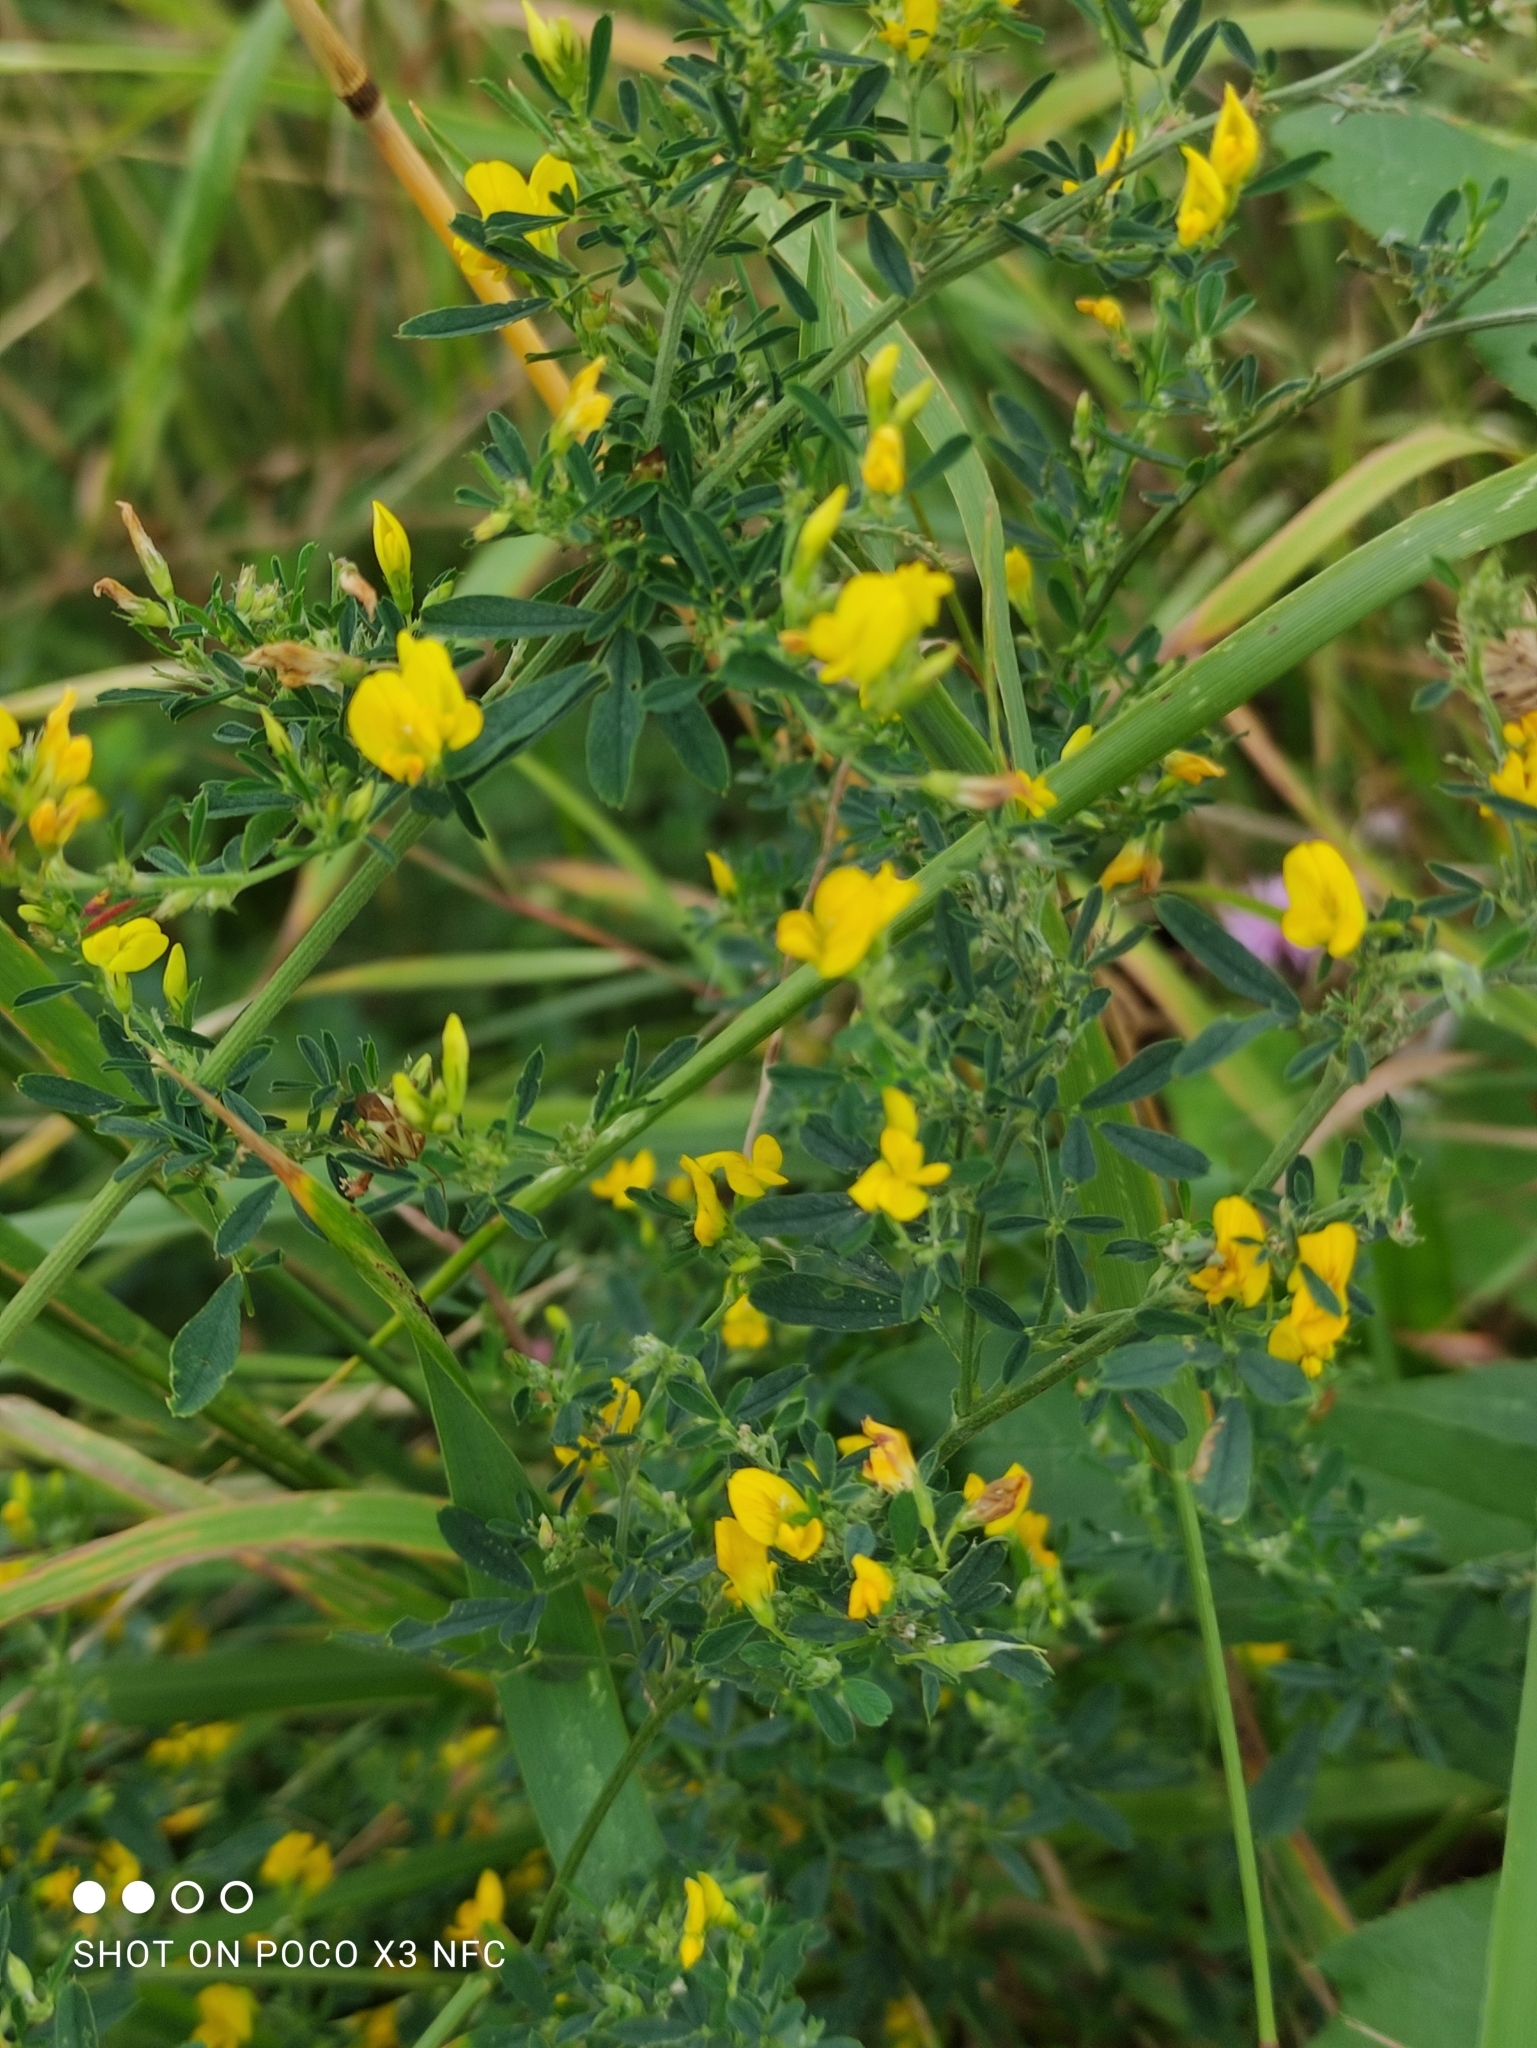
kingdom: Plantae
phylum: Tracheophyta
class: Magnoliopsida
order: Fabales
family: Fabaceae
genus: Medicago
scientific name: Medicago falcata
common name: Sickle medick
